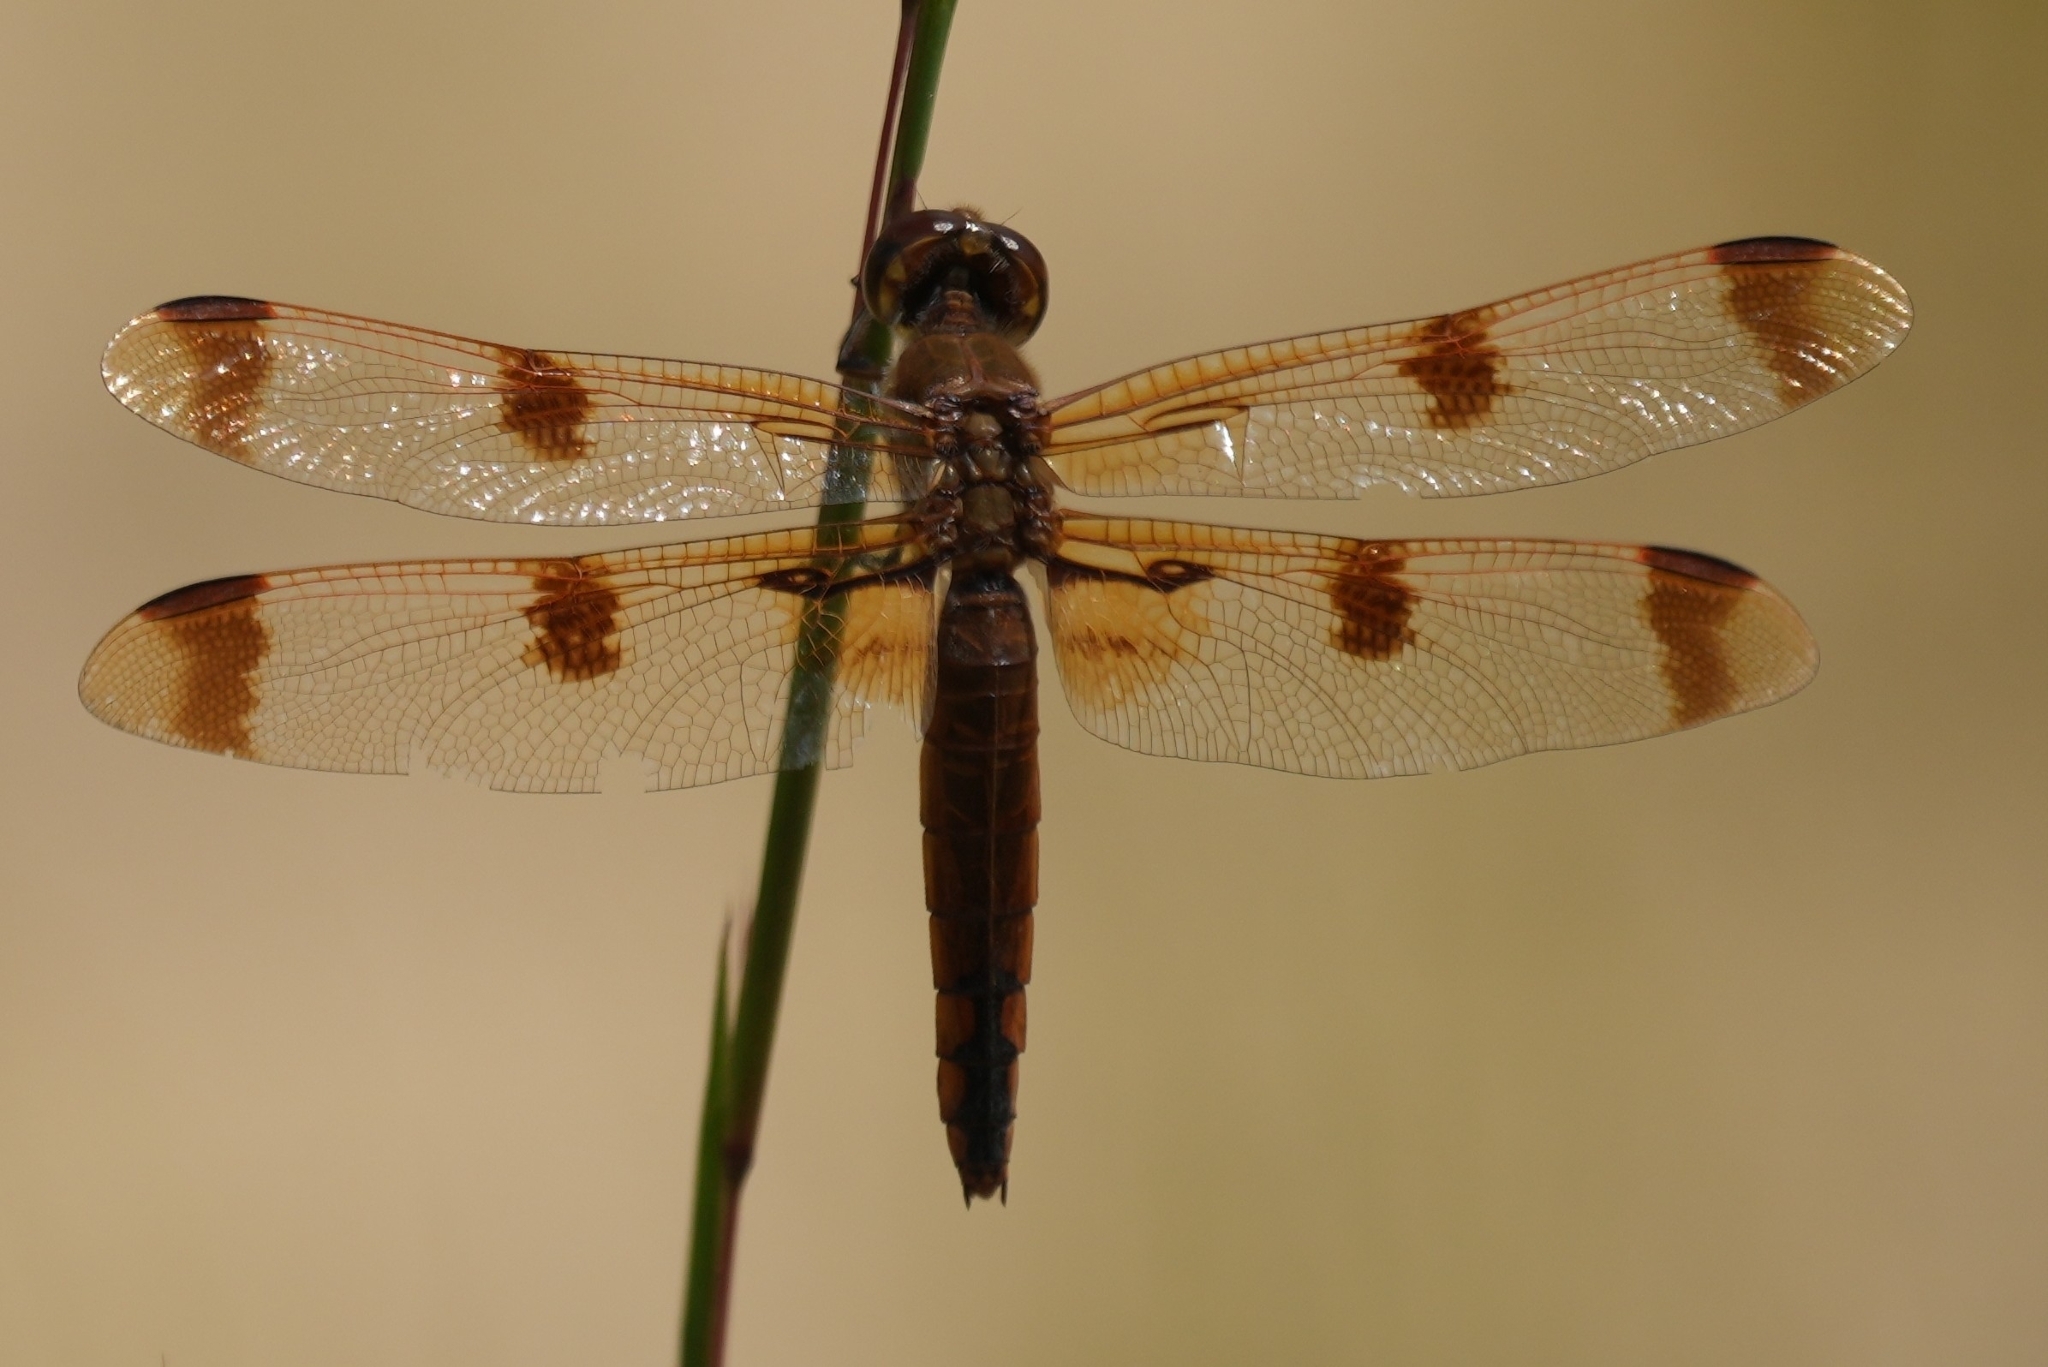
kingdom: Animalia
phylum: Arthropoda
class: Insecta
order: Odonata
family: Libellulidae
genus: Libellula
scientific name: Libellula semifasciata
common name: Painted skimmer
